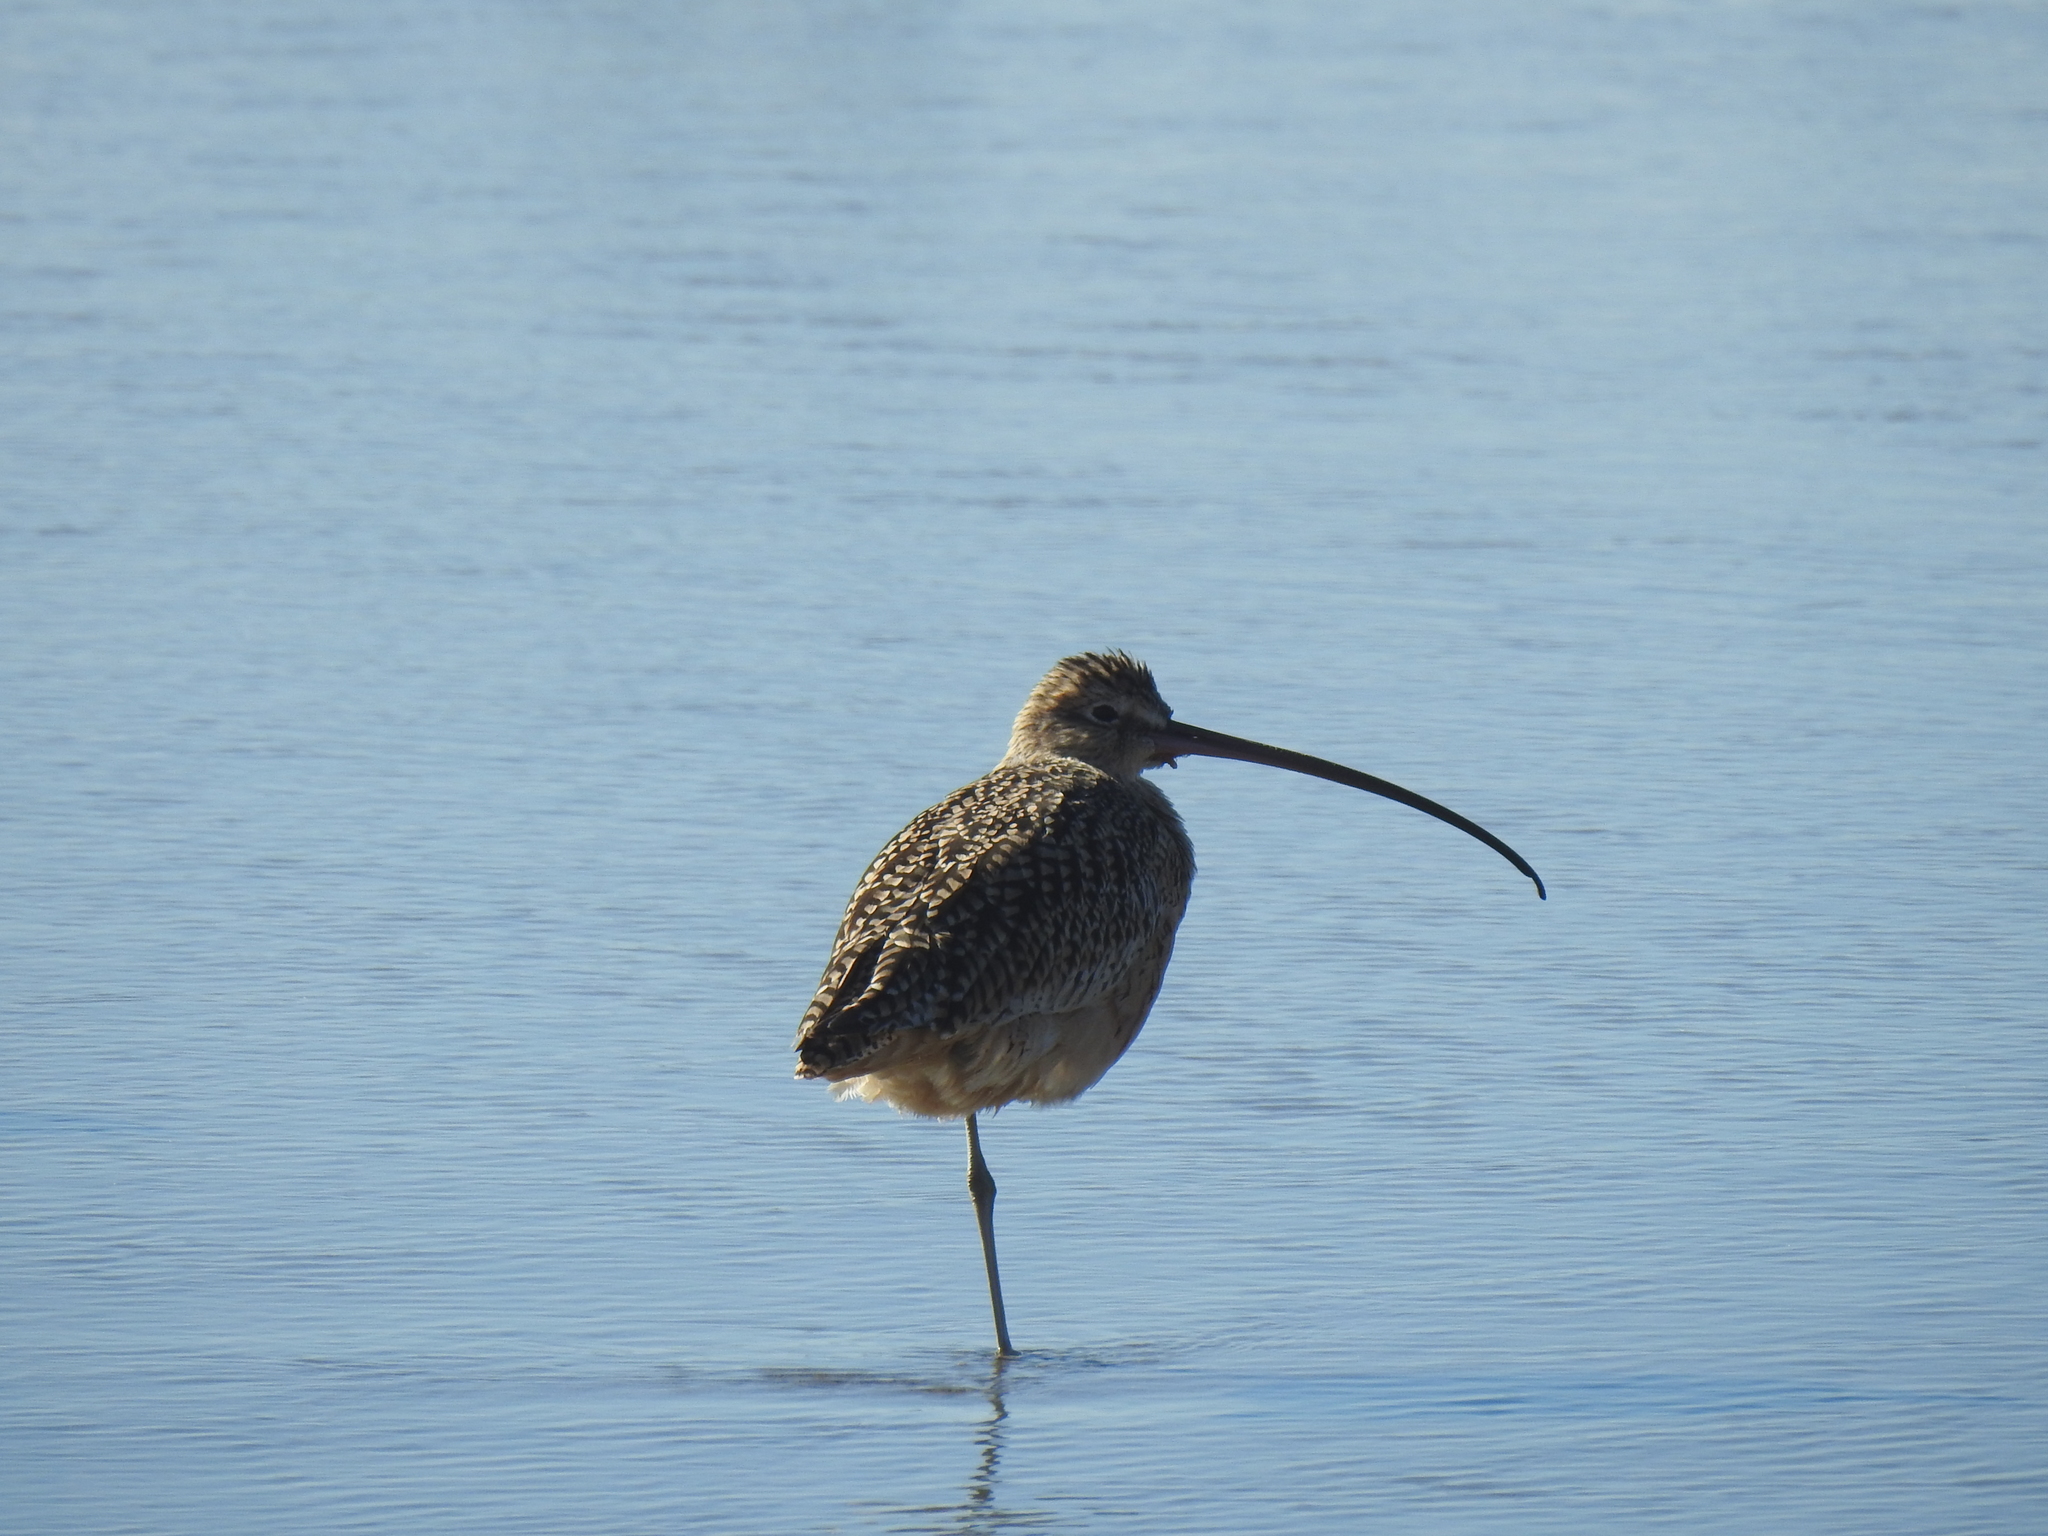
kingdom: Animalia
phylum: Chordata
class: Aves
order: Charadriiformes
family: Scolopacidae
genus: Numenius
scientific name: Numenius americanus
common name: Long-billed curlew
